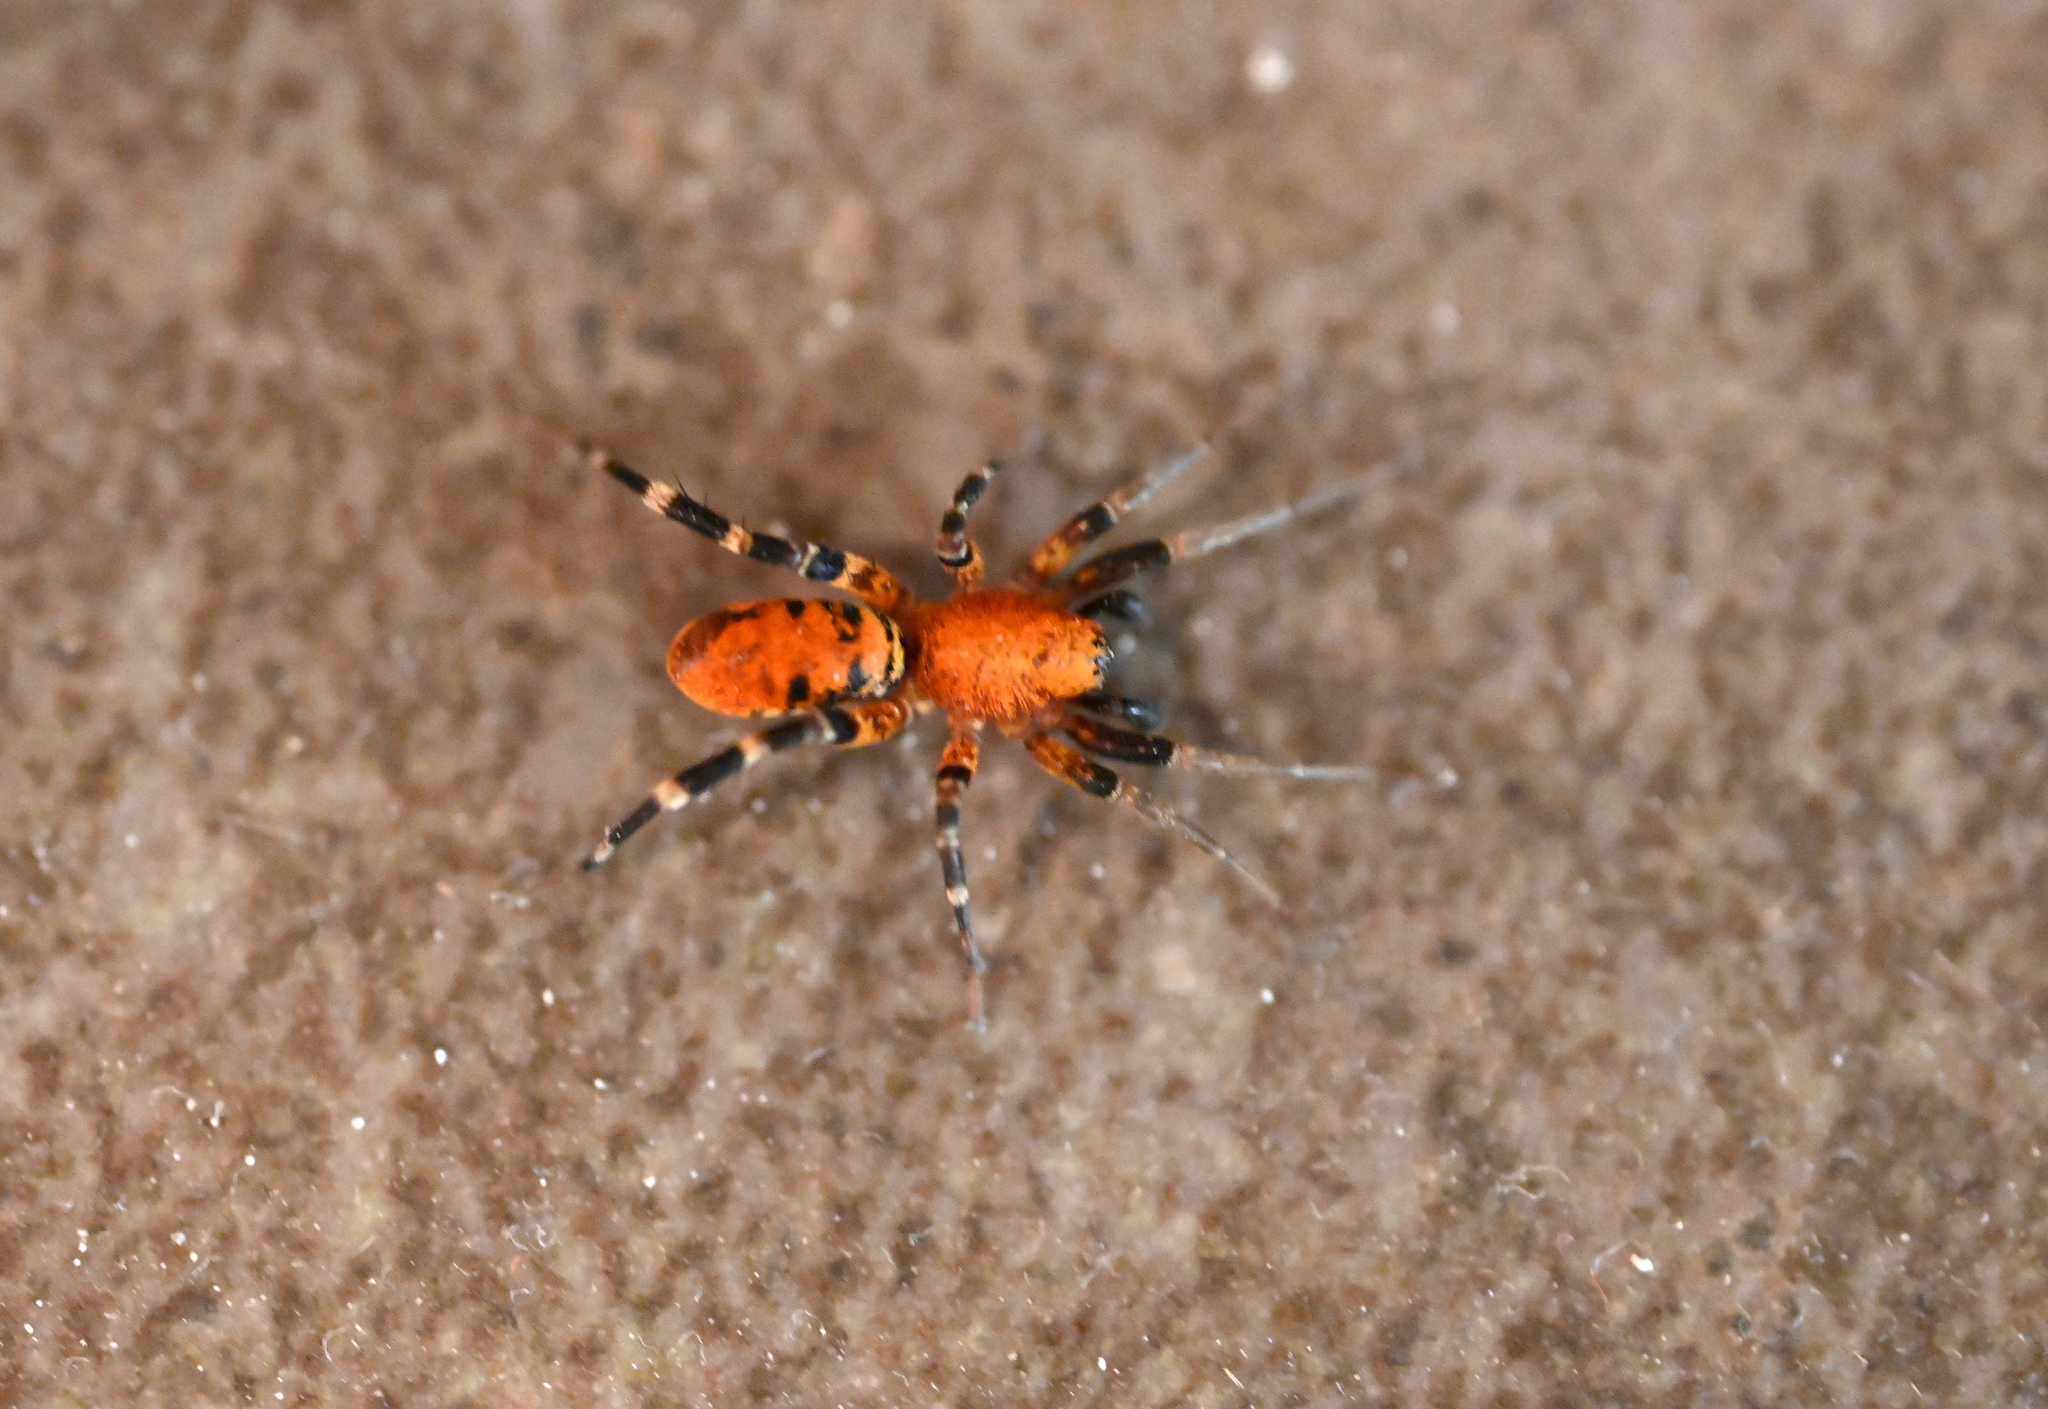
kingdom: Animalia
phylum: Arthropoda
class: Arachnida
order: Araneae
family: Corinnidae
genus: Castianeira
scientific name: Castianeira amoena
